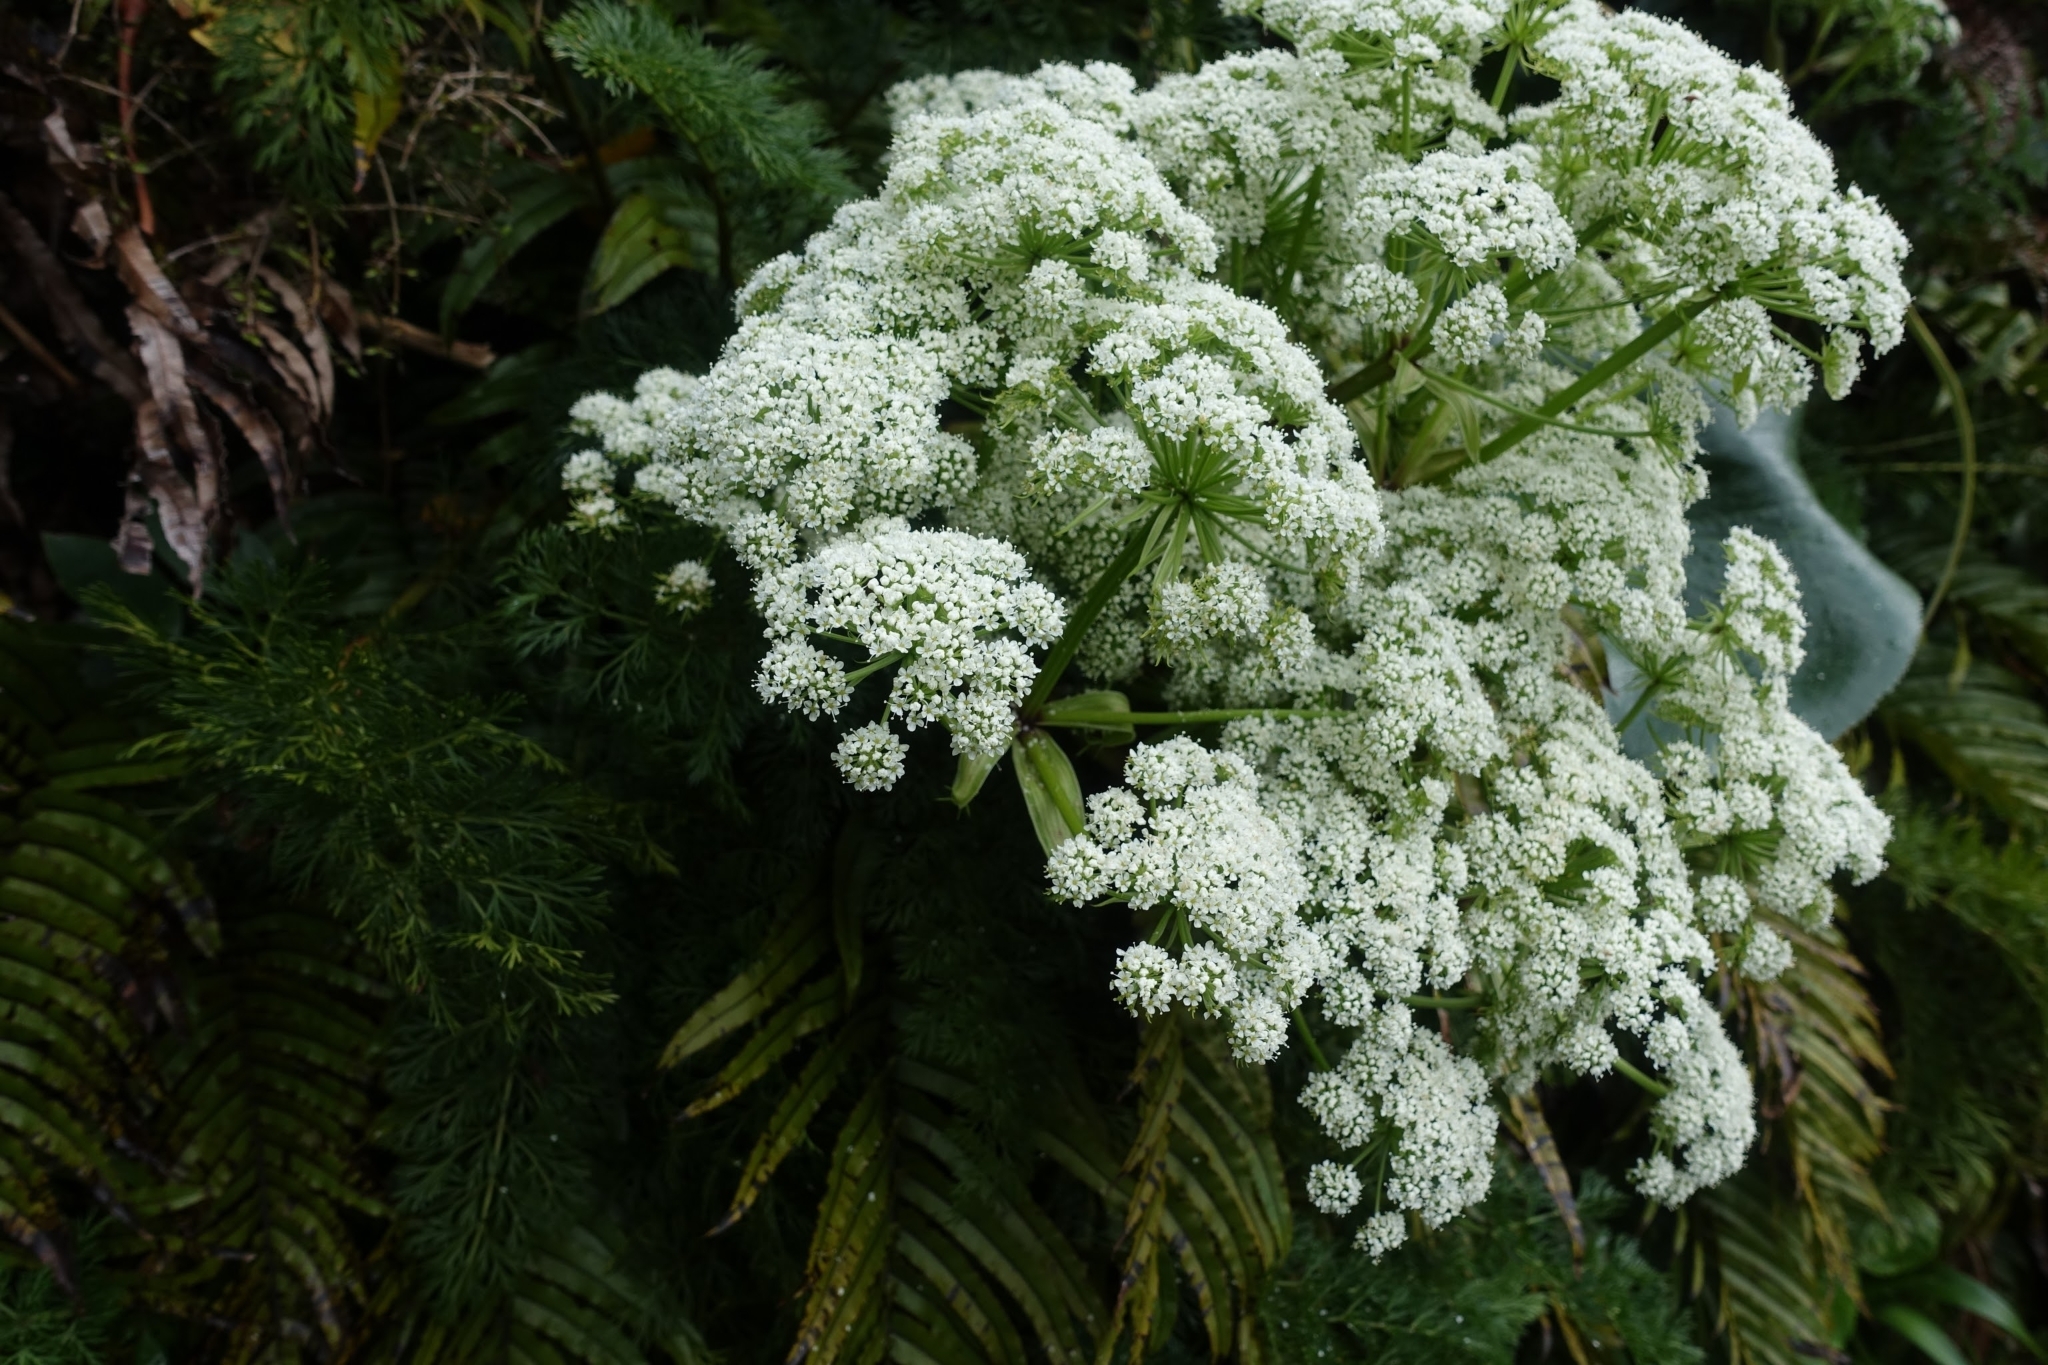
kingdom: Plantae
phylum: Tracheophyta
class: Magnoliopsida
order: Apiales
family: Apiaceae
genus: Anisotome
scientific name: Anisotome haastii
